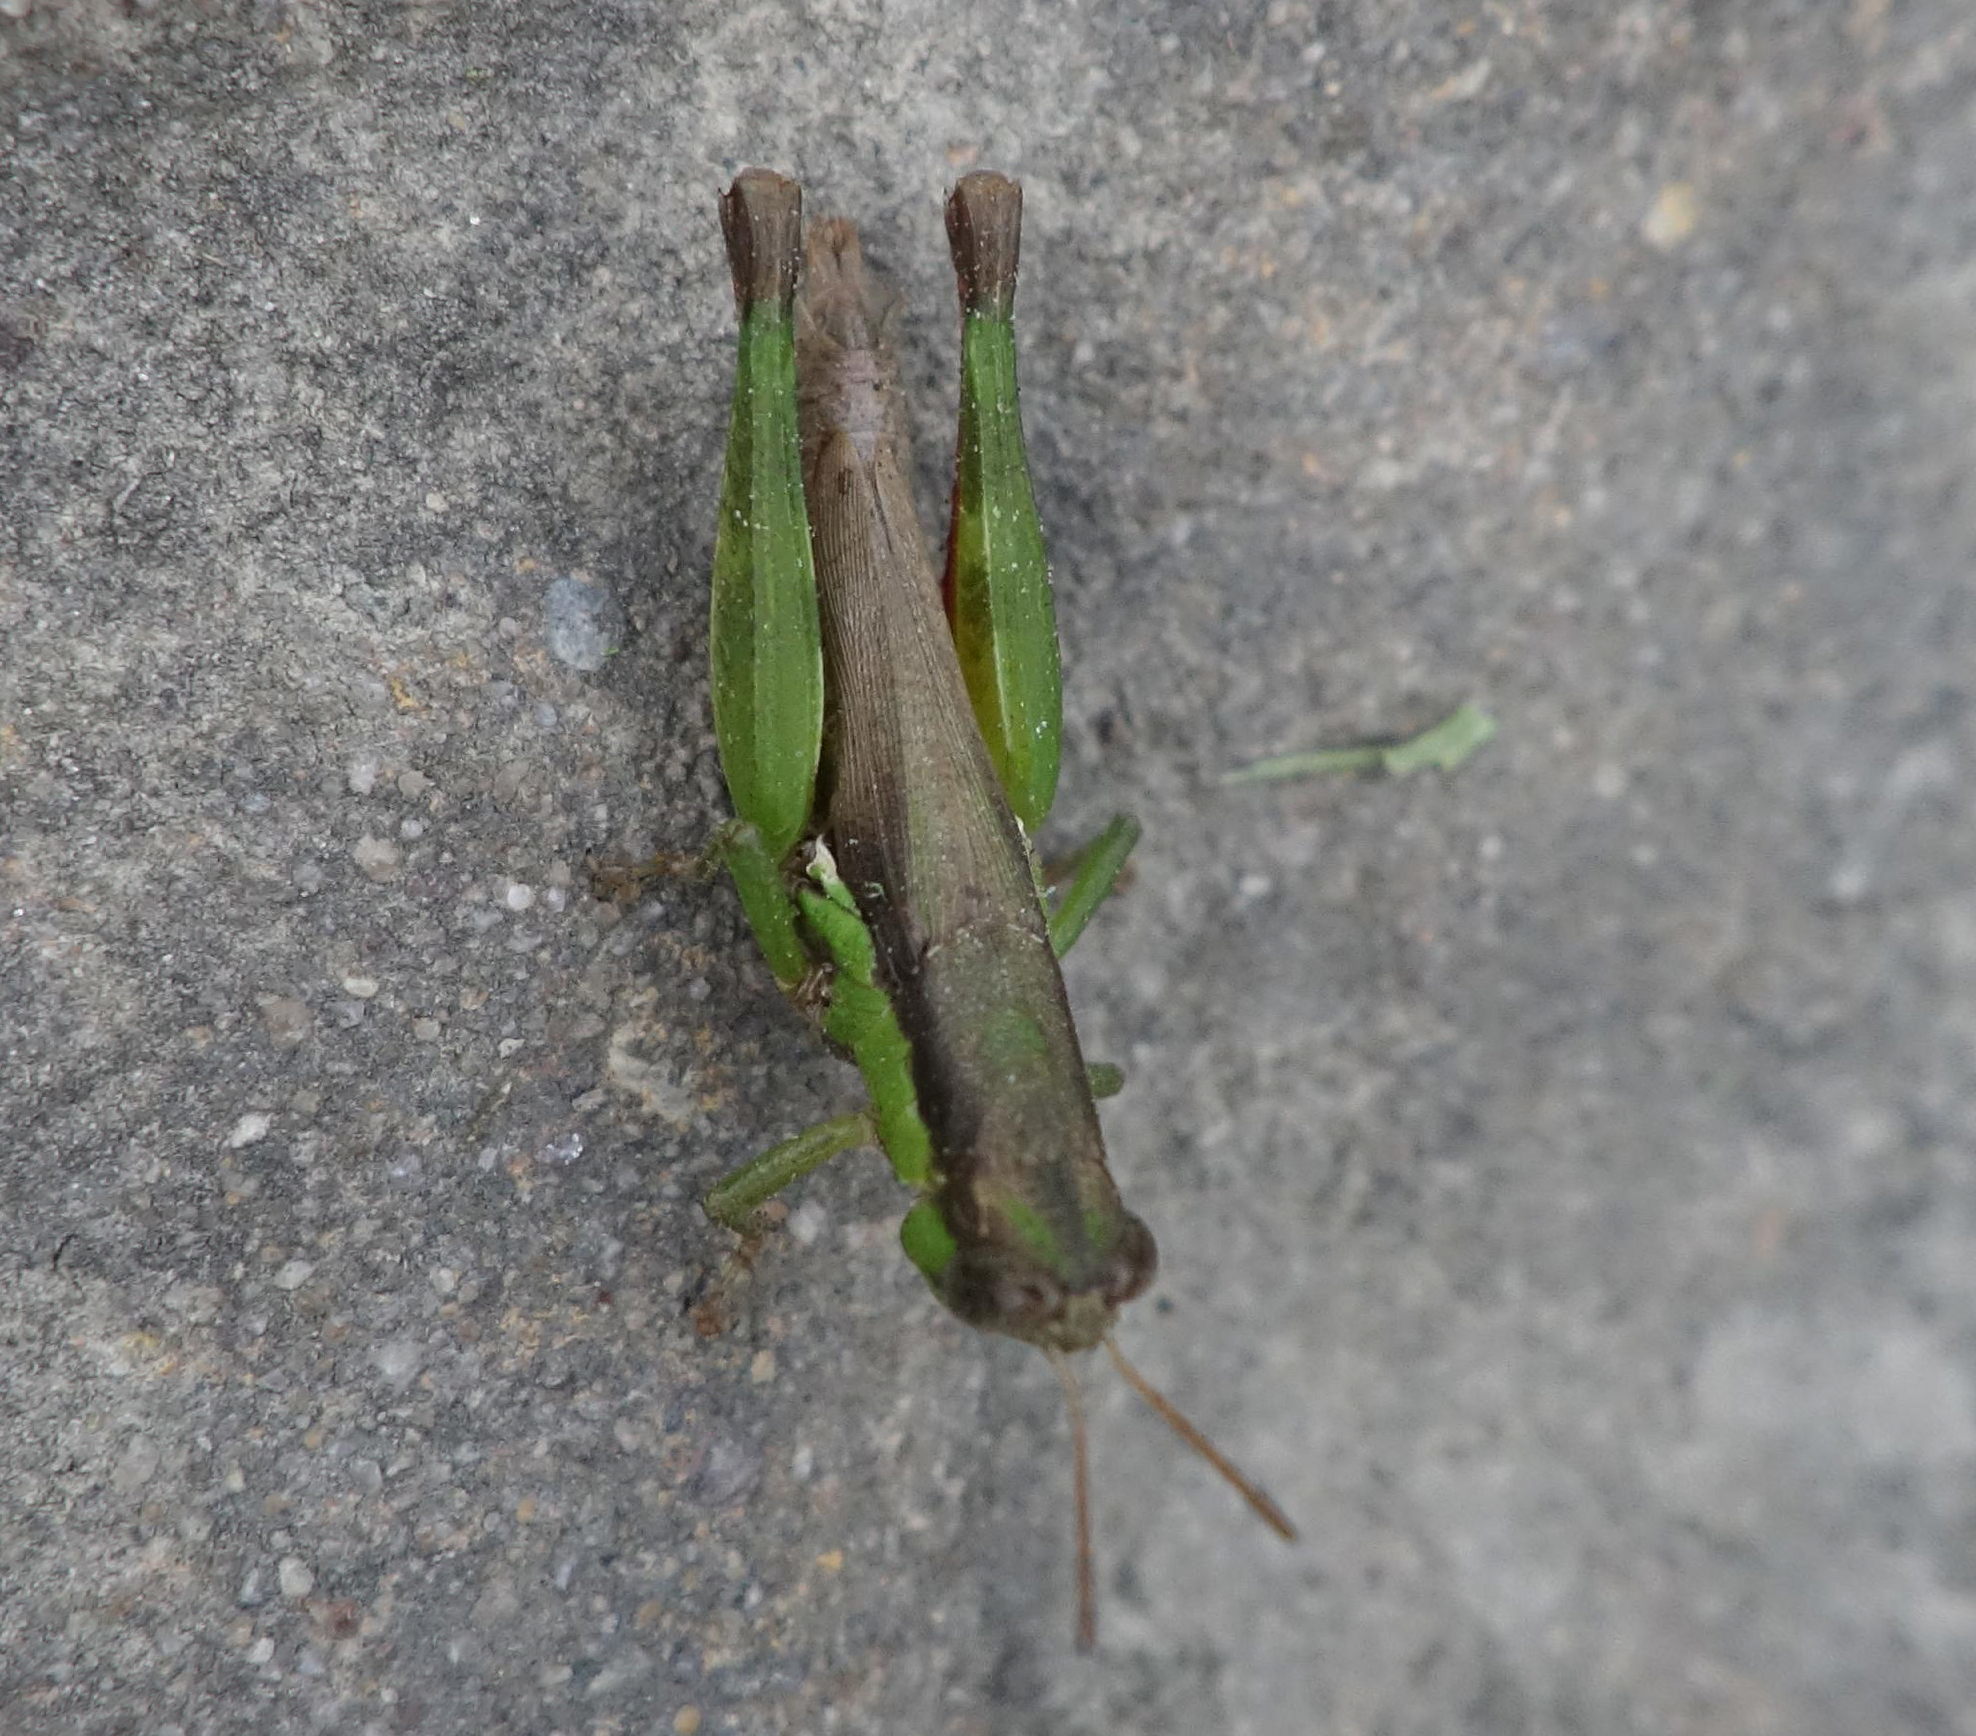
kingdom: Animalia
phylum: Arthropoda
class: Insecta
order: Orthoptera
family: Acrididae
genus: Pseudoxya
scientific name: Pseudoxya diminuta
